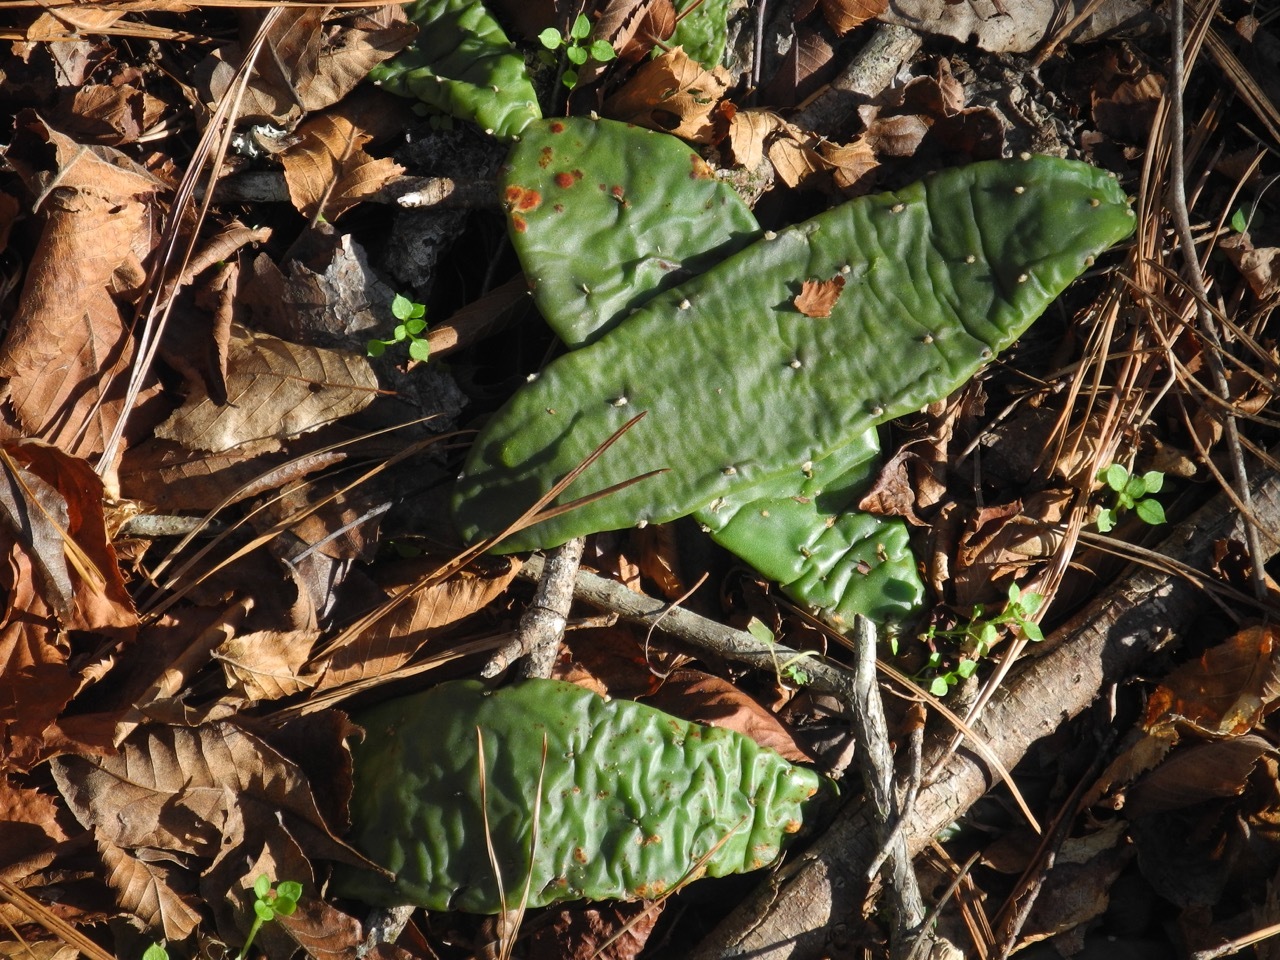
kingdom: Plantae
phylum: Tracheophyta
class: Magnoliopsida
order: Caryophyllales
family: Cactaceae
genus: Opuntia
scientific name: Opuntia mesacantha
